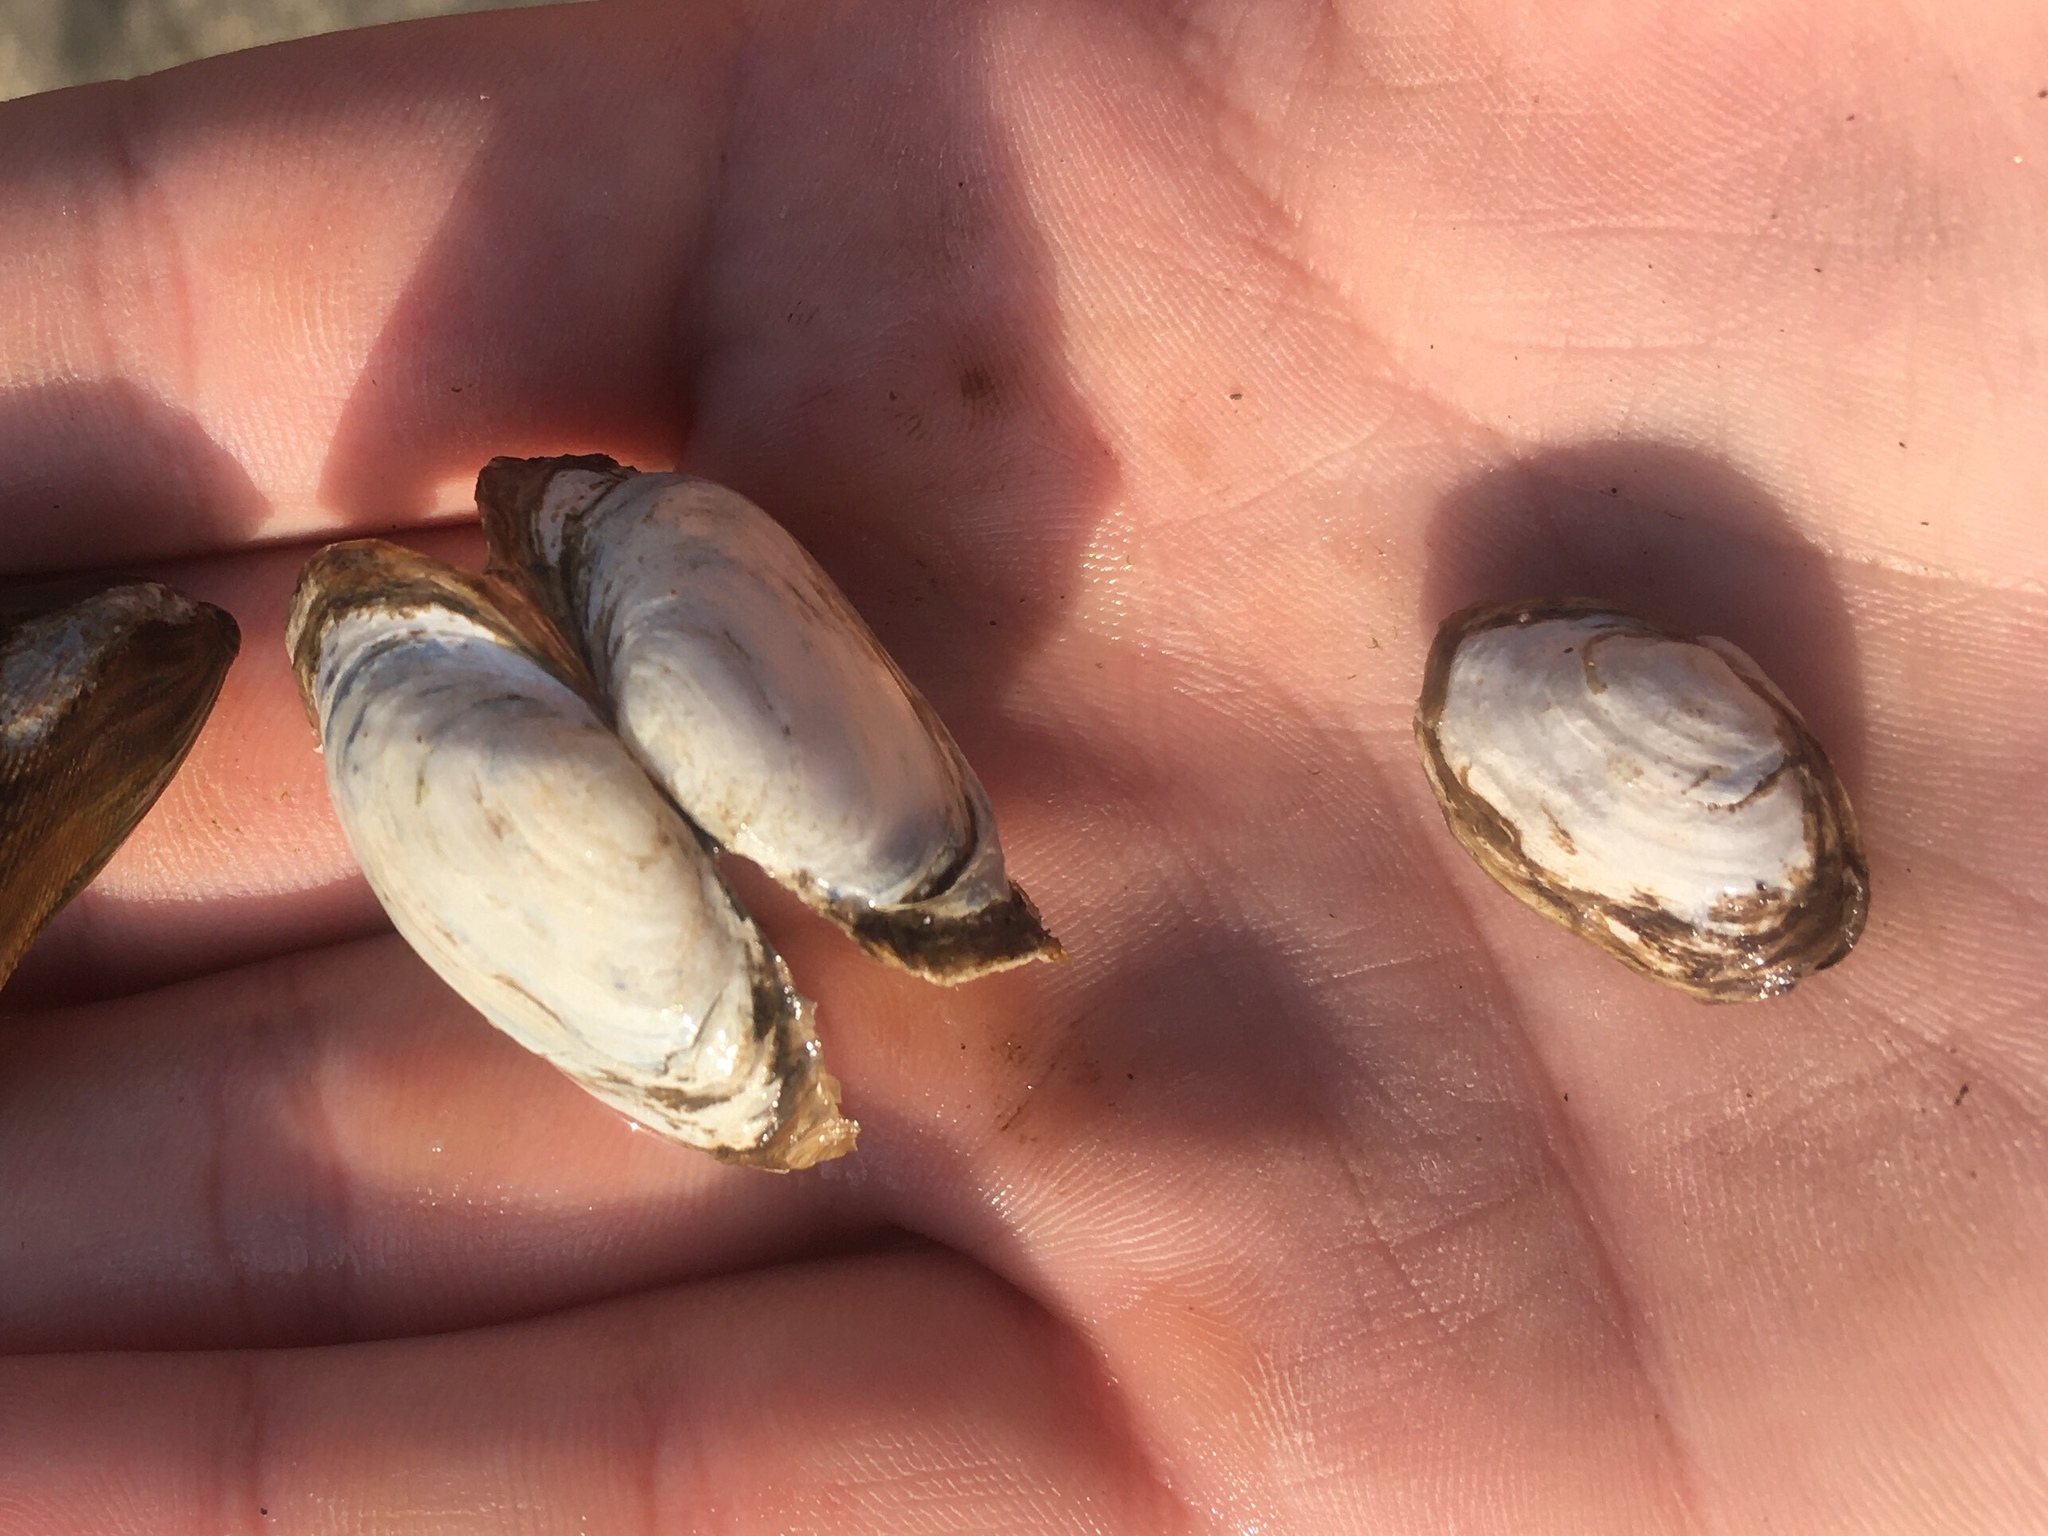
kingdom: Animalia
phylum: Mollusca
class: Bivalvia
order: Myida
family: Myidae
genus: Mya
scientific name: Mya arenaria
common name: Soft-shelled clam
